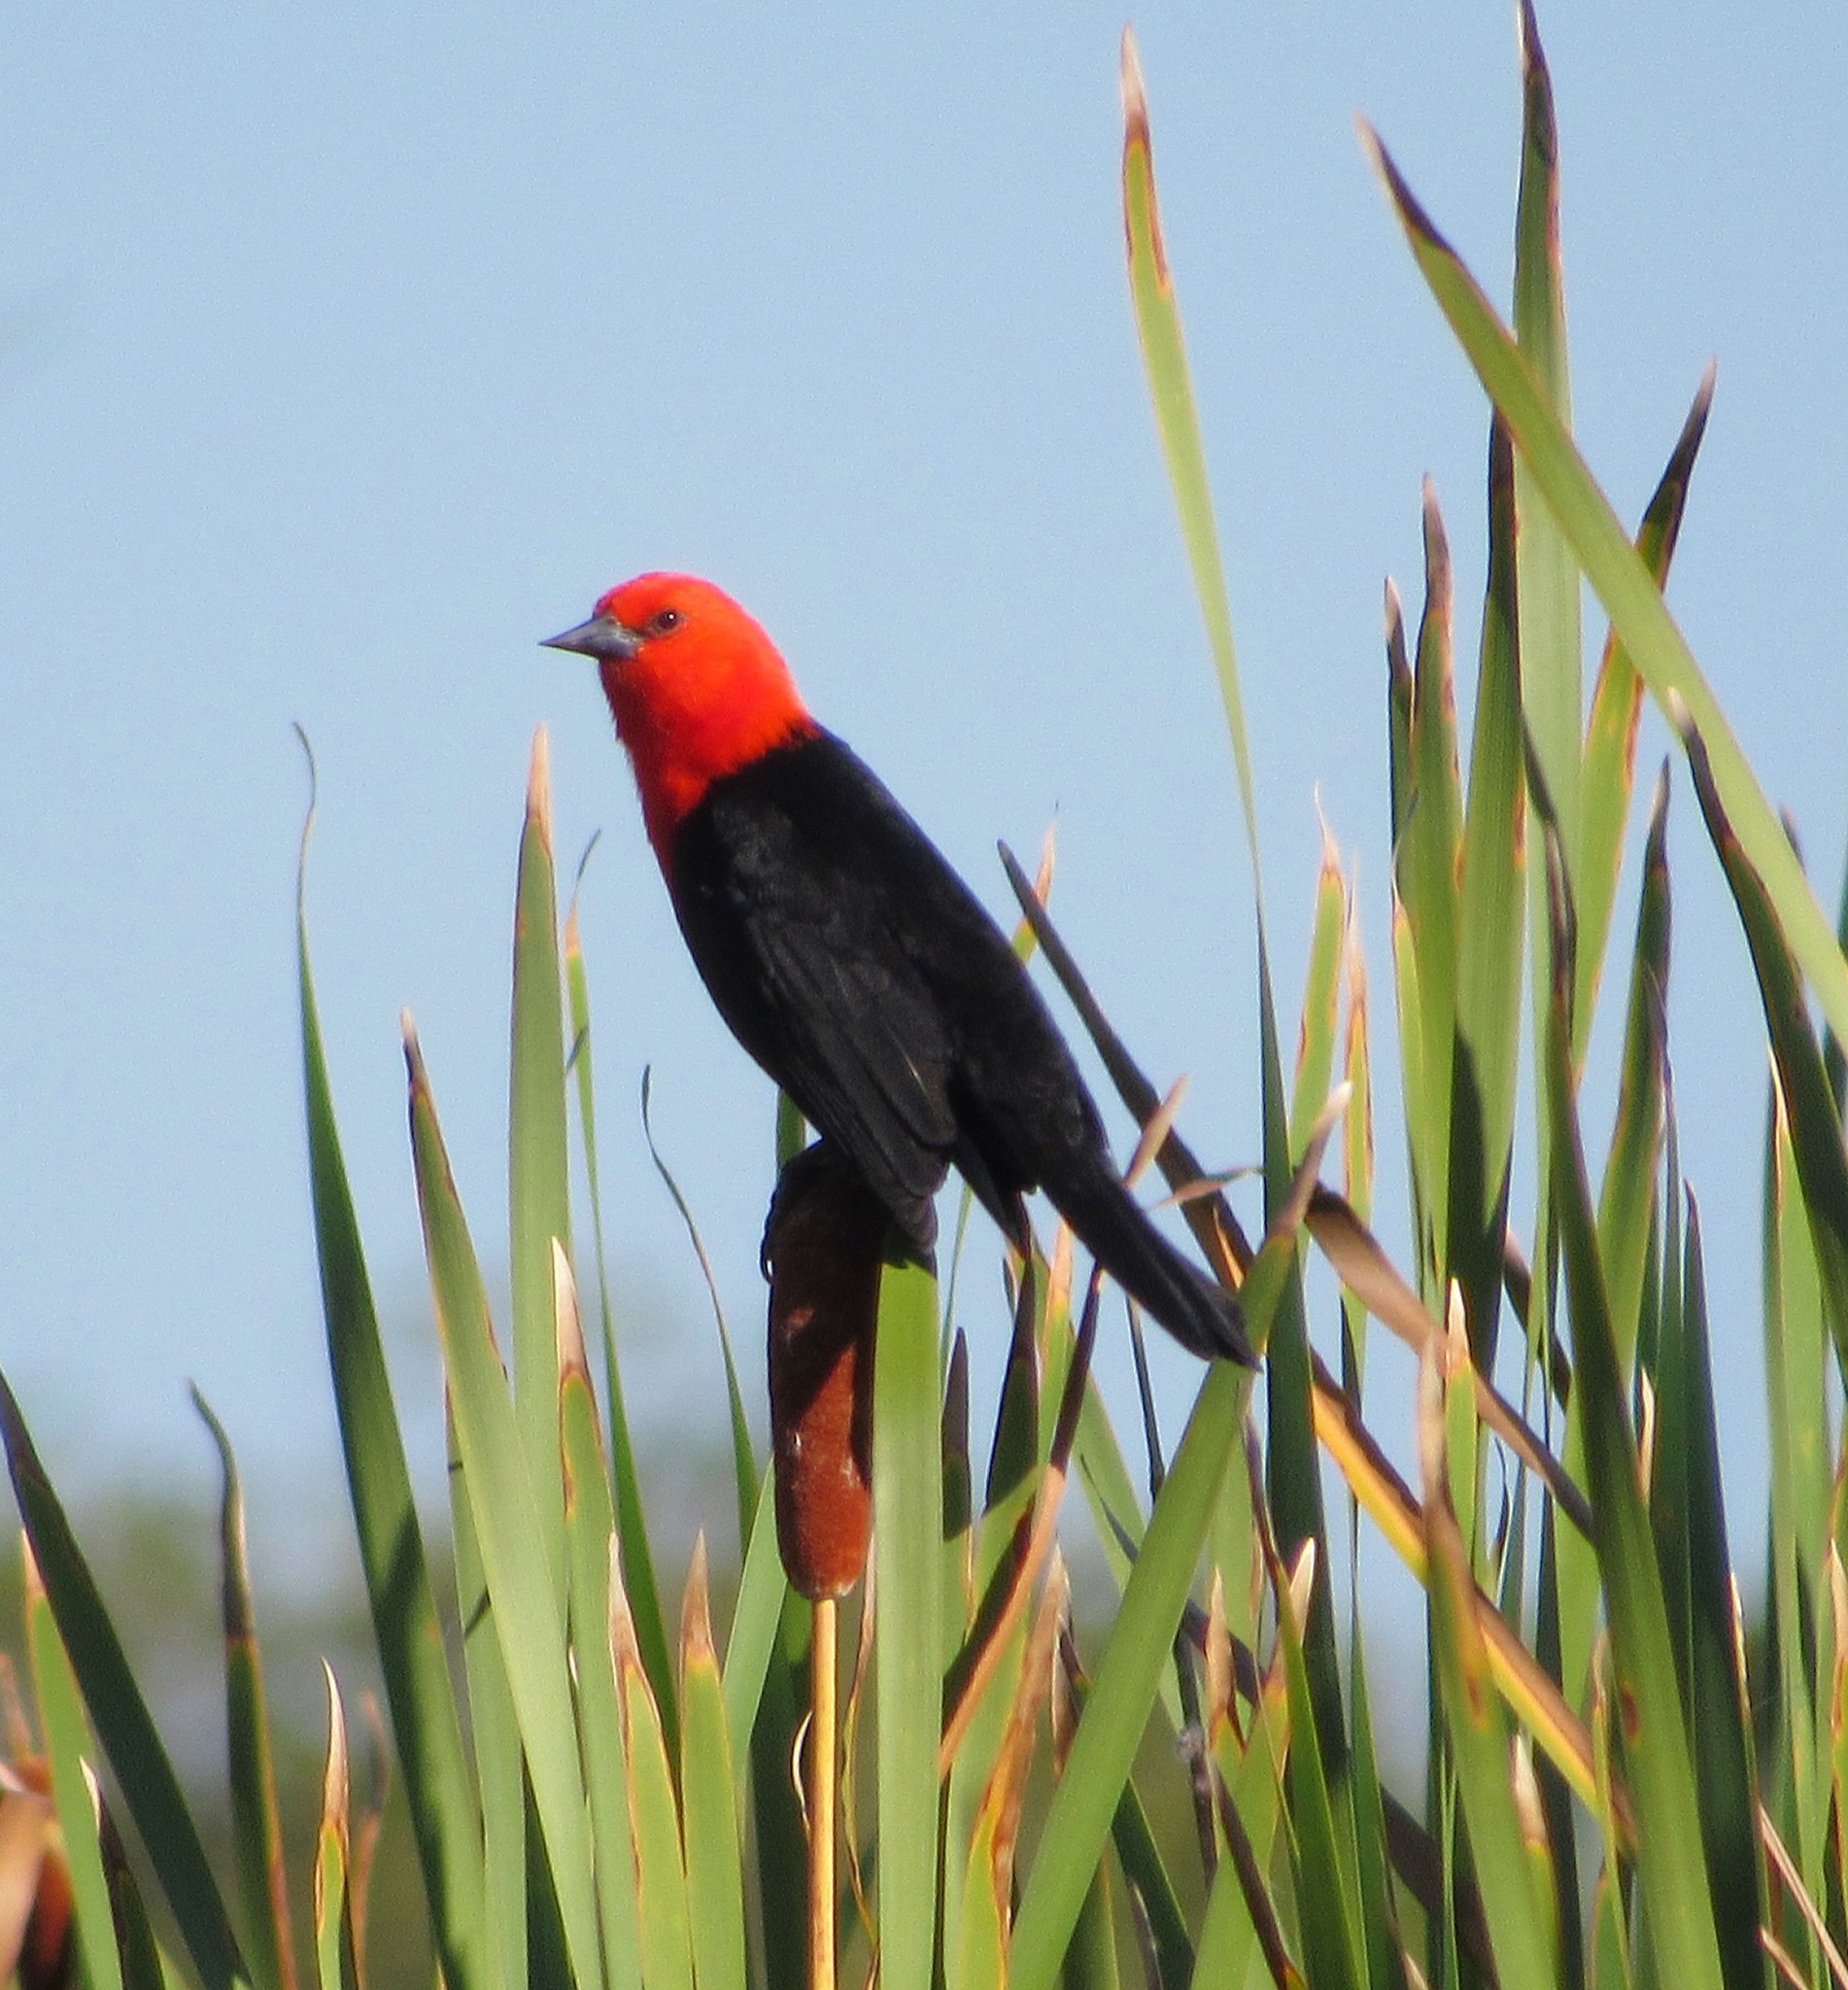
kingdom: Animalia
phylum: Chordata
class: Aves
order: Passeriformes
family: Icteridae
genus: Amblyramphus
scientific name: Amblyramphus holosericeus
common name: Scarlet-headed blackbird
